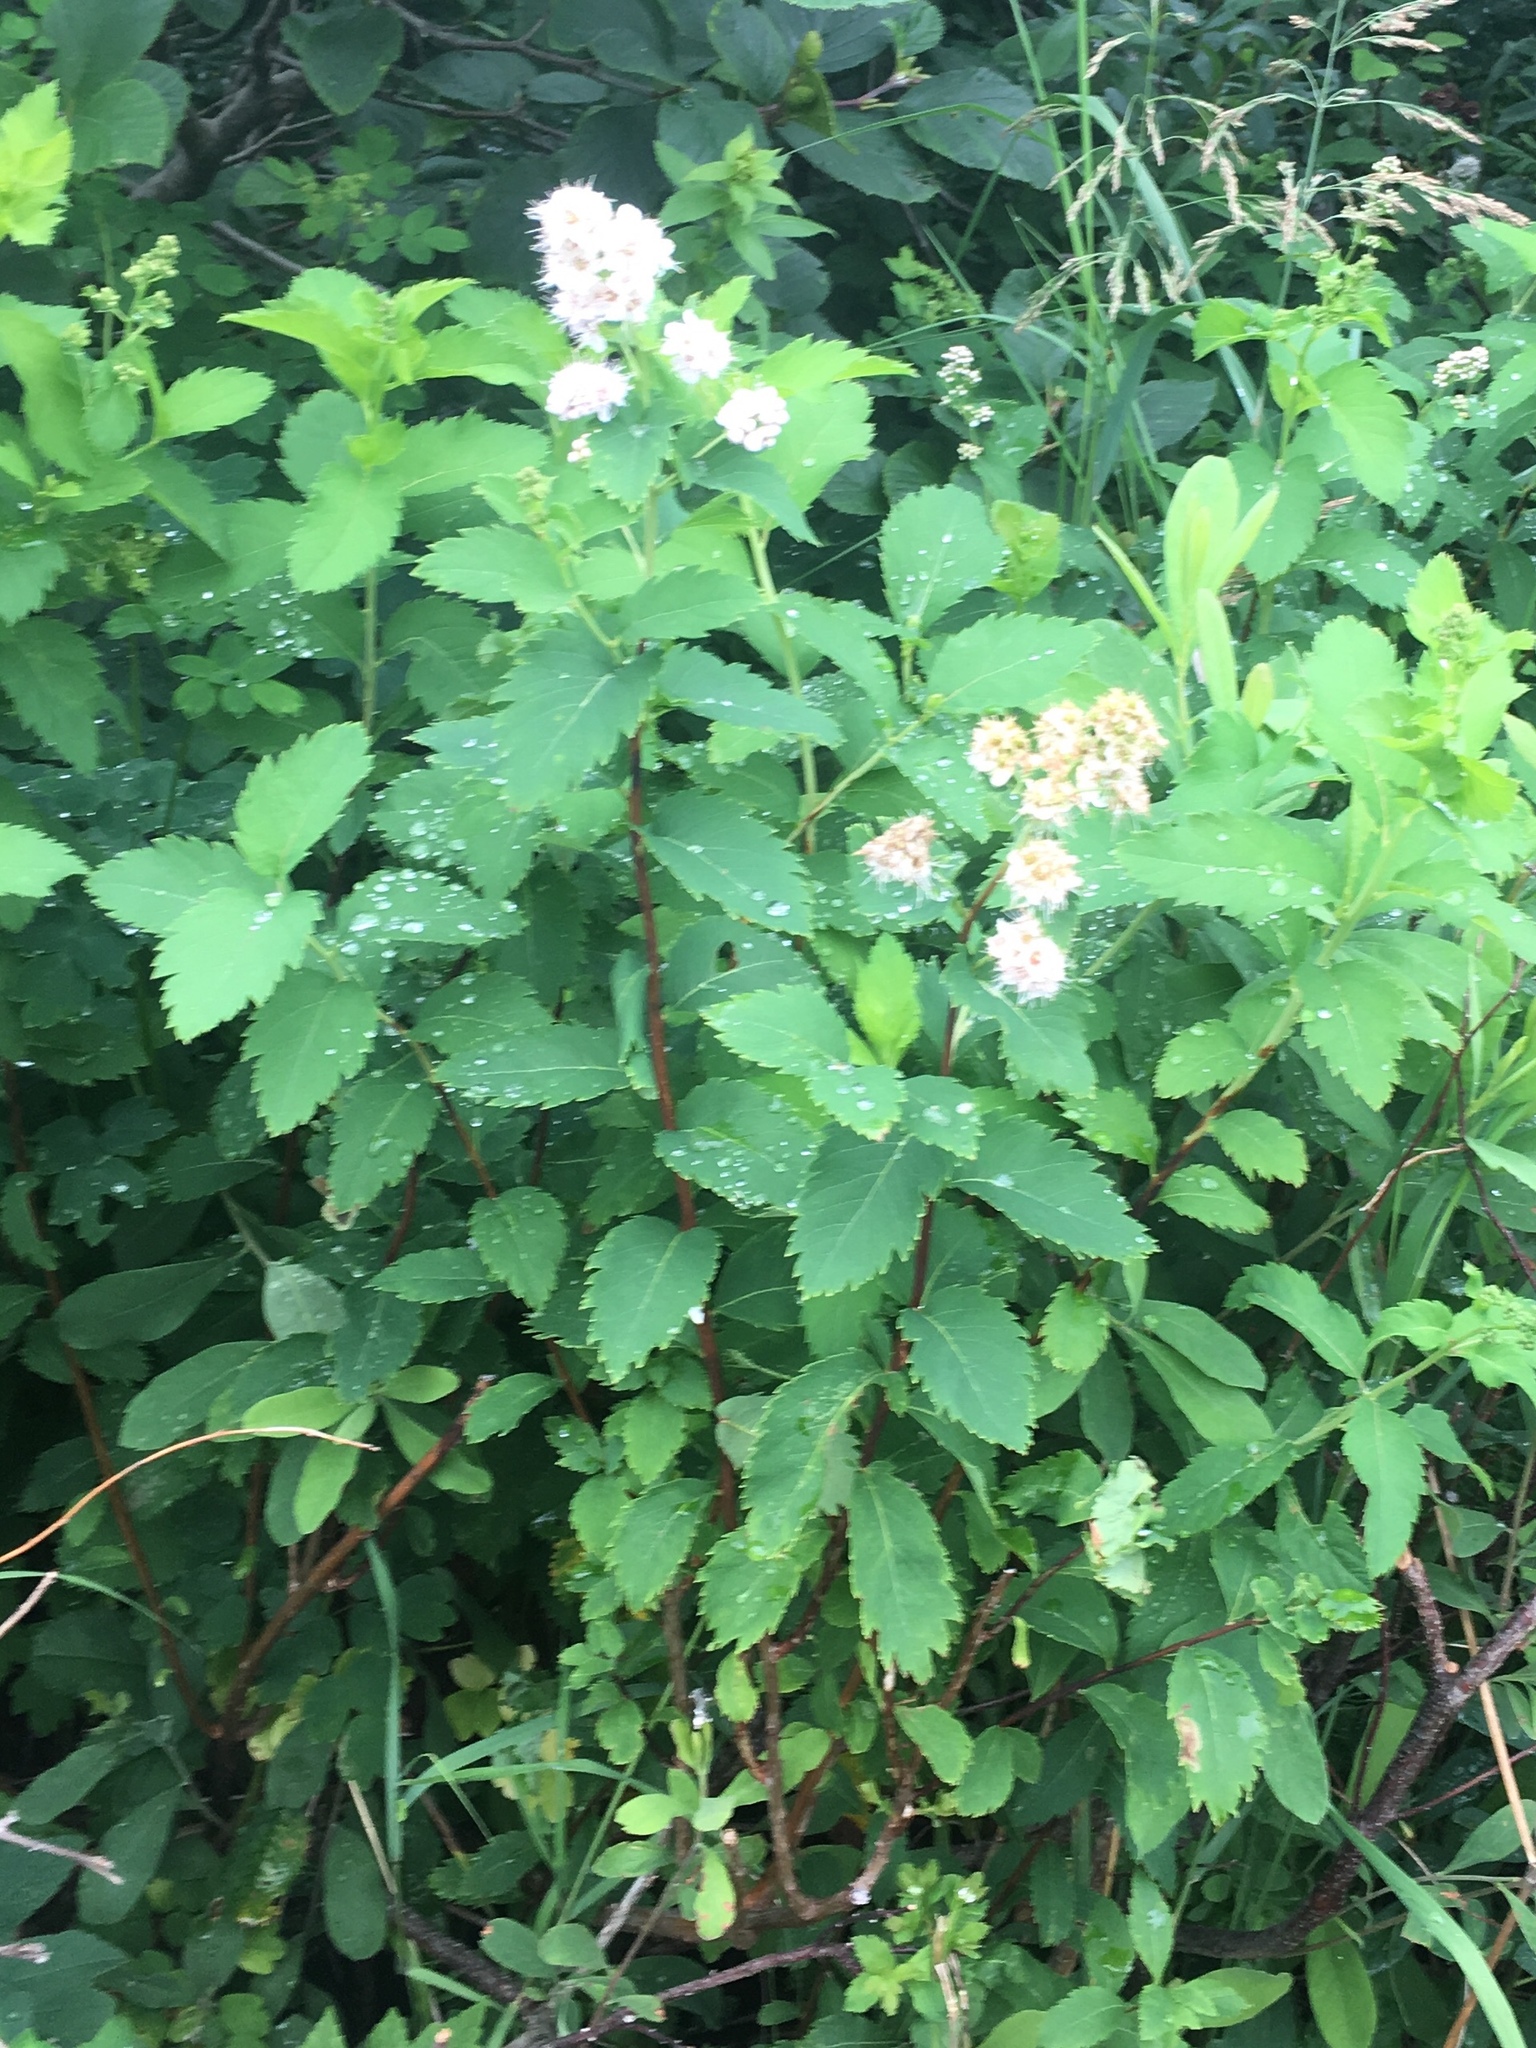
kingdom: Plantae
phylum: Tracheophyta
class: Magnoliopsida
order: Rosales
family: Rosaceae
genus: Spiraea
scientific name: Spiraea alba
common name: Pale bridewort
